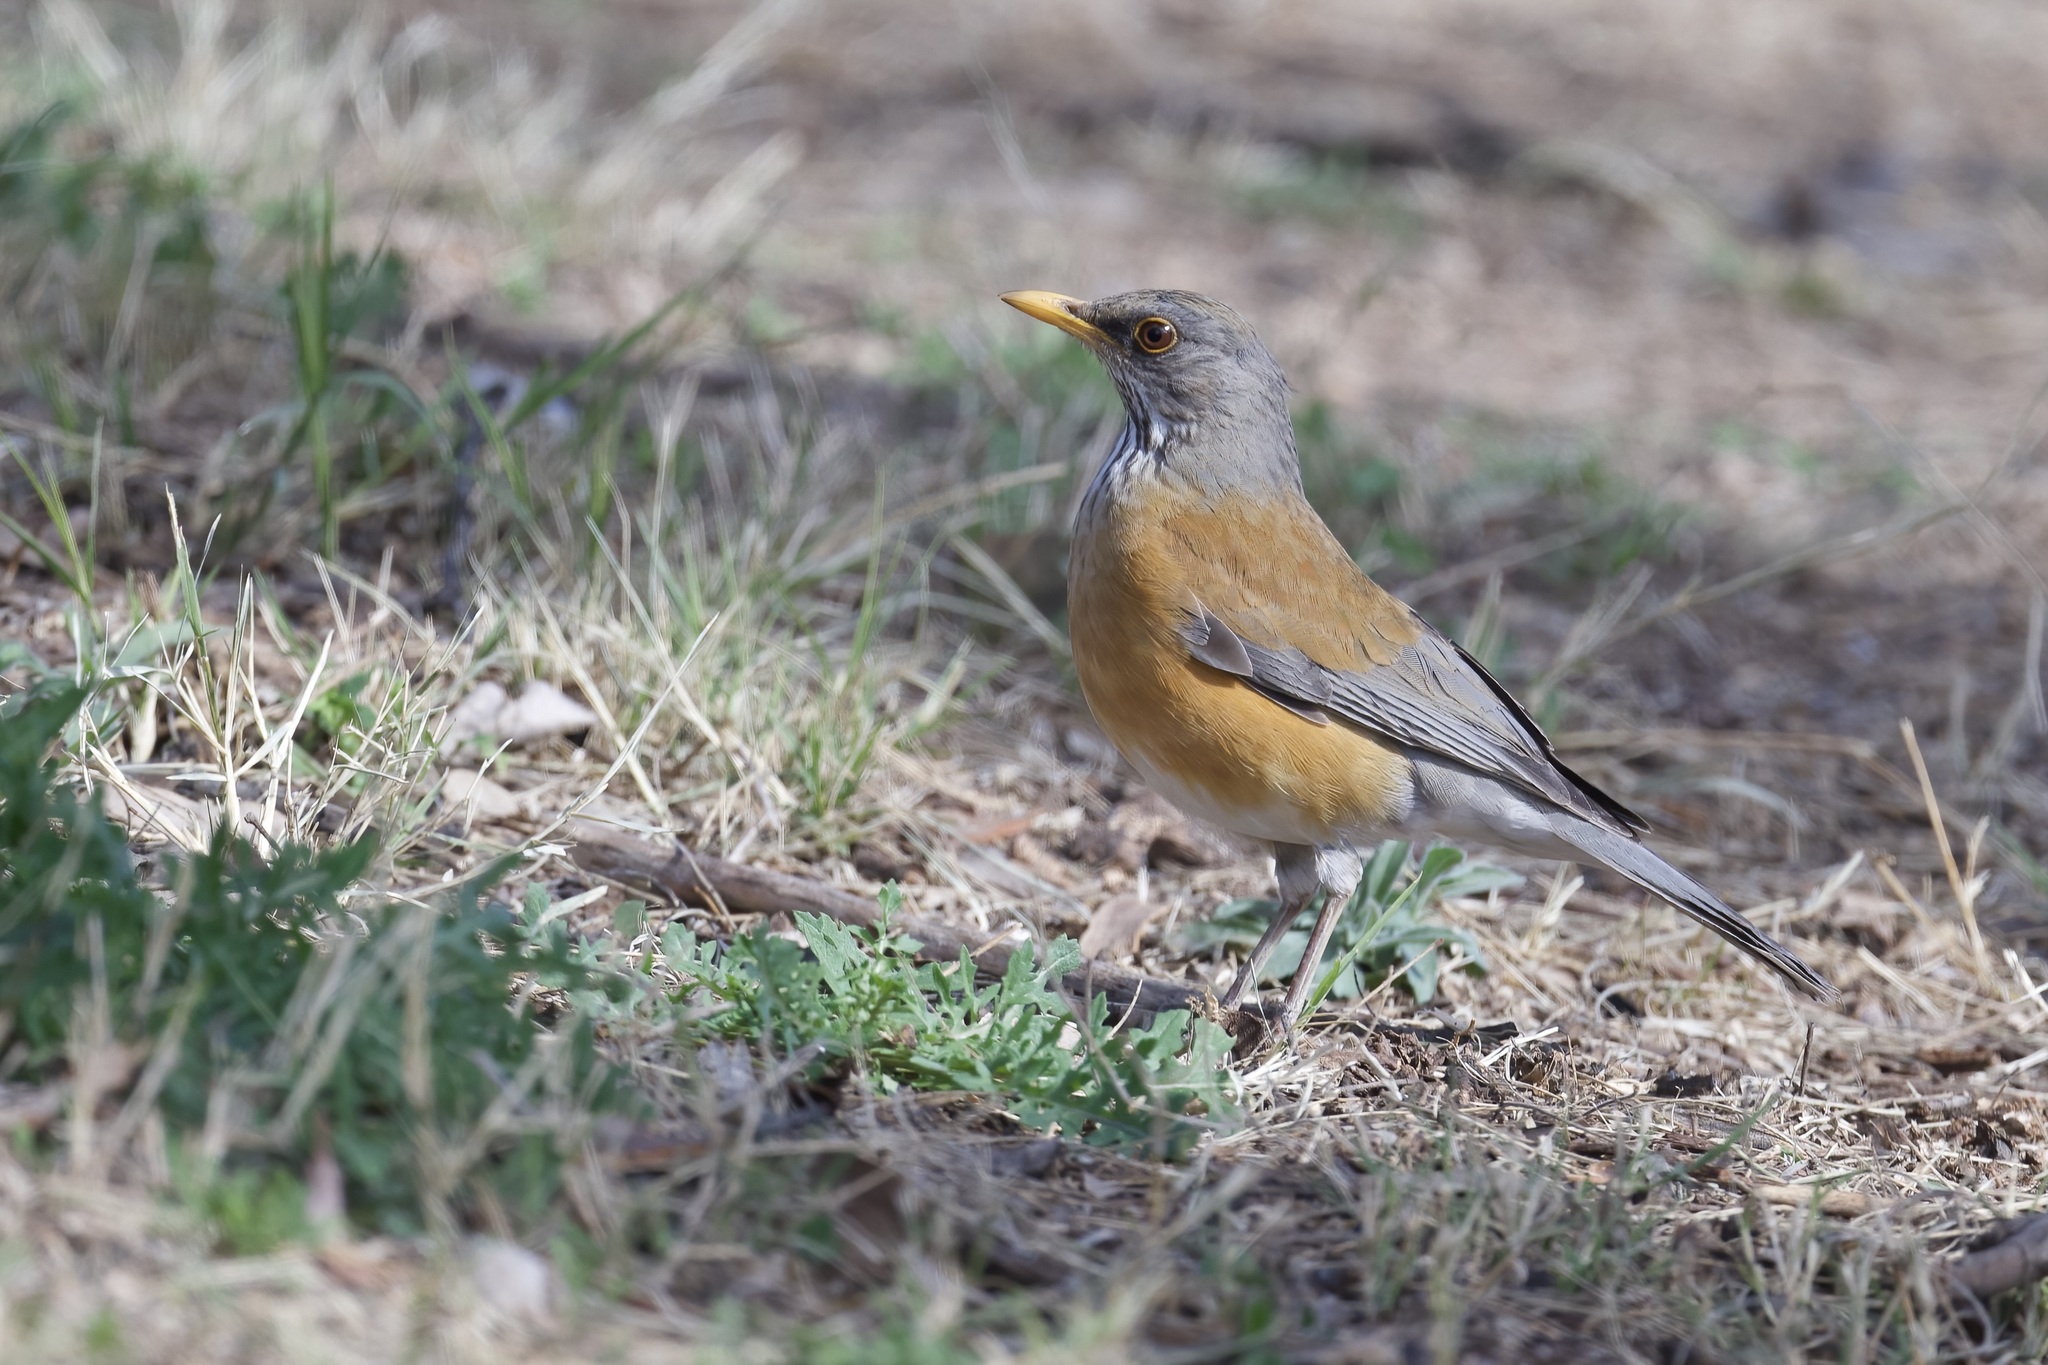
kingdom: Animalia
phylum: Chordata
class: Aves
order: Passeriformes
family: Turdidae
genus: Turdus
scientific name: Turdus rufopalliatus
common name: Rufous-backed robin
